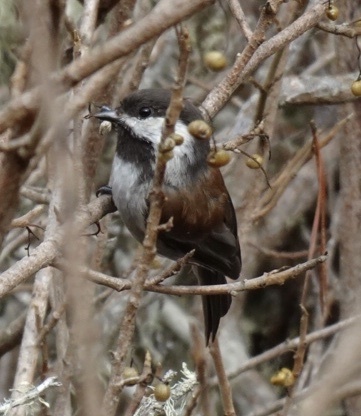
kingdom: Animalia
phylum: Chordata
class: Aves
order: Passeriformes
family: Paridae
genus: Poecile
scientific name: Poecile rufescens
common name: Chestnut-backed chickadee
